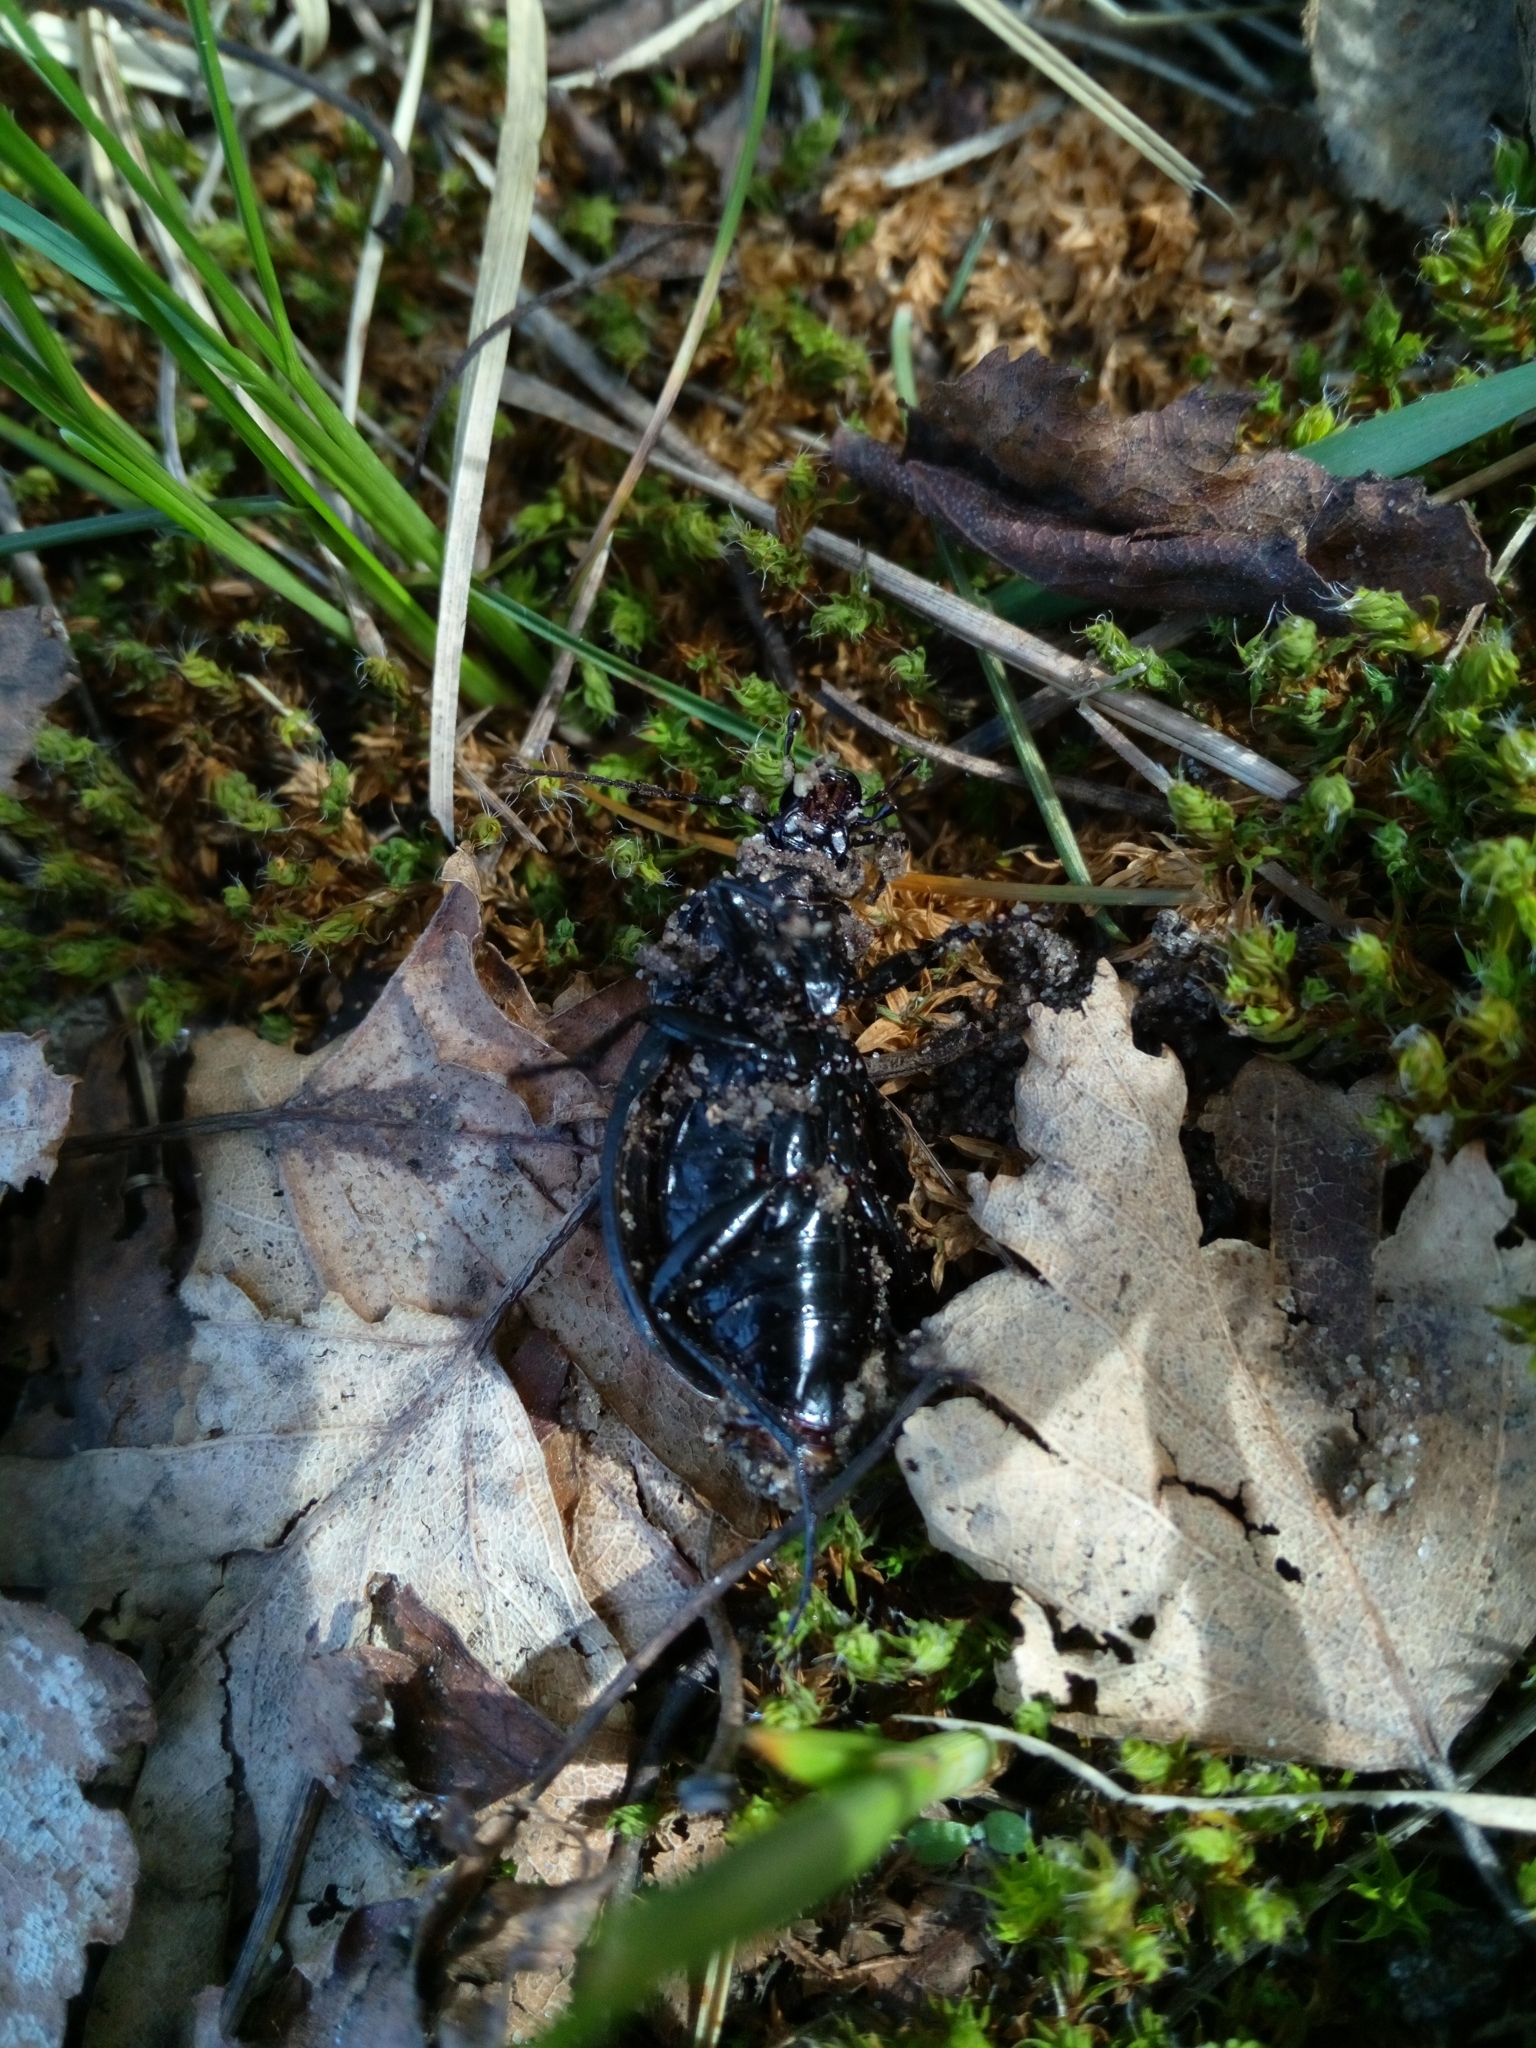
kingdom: Animalia
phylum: Arthropoda
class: Insecta
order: Coleoptera
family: Carabidae
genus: Carabus
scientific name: Carabus nemoralis
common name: European ground beetle
